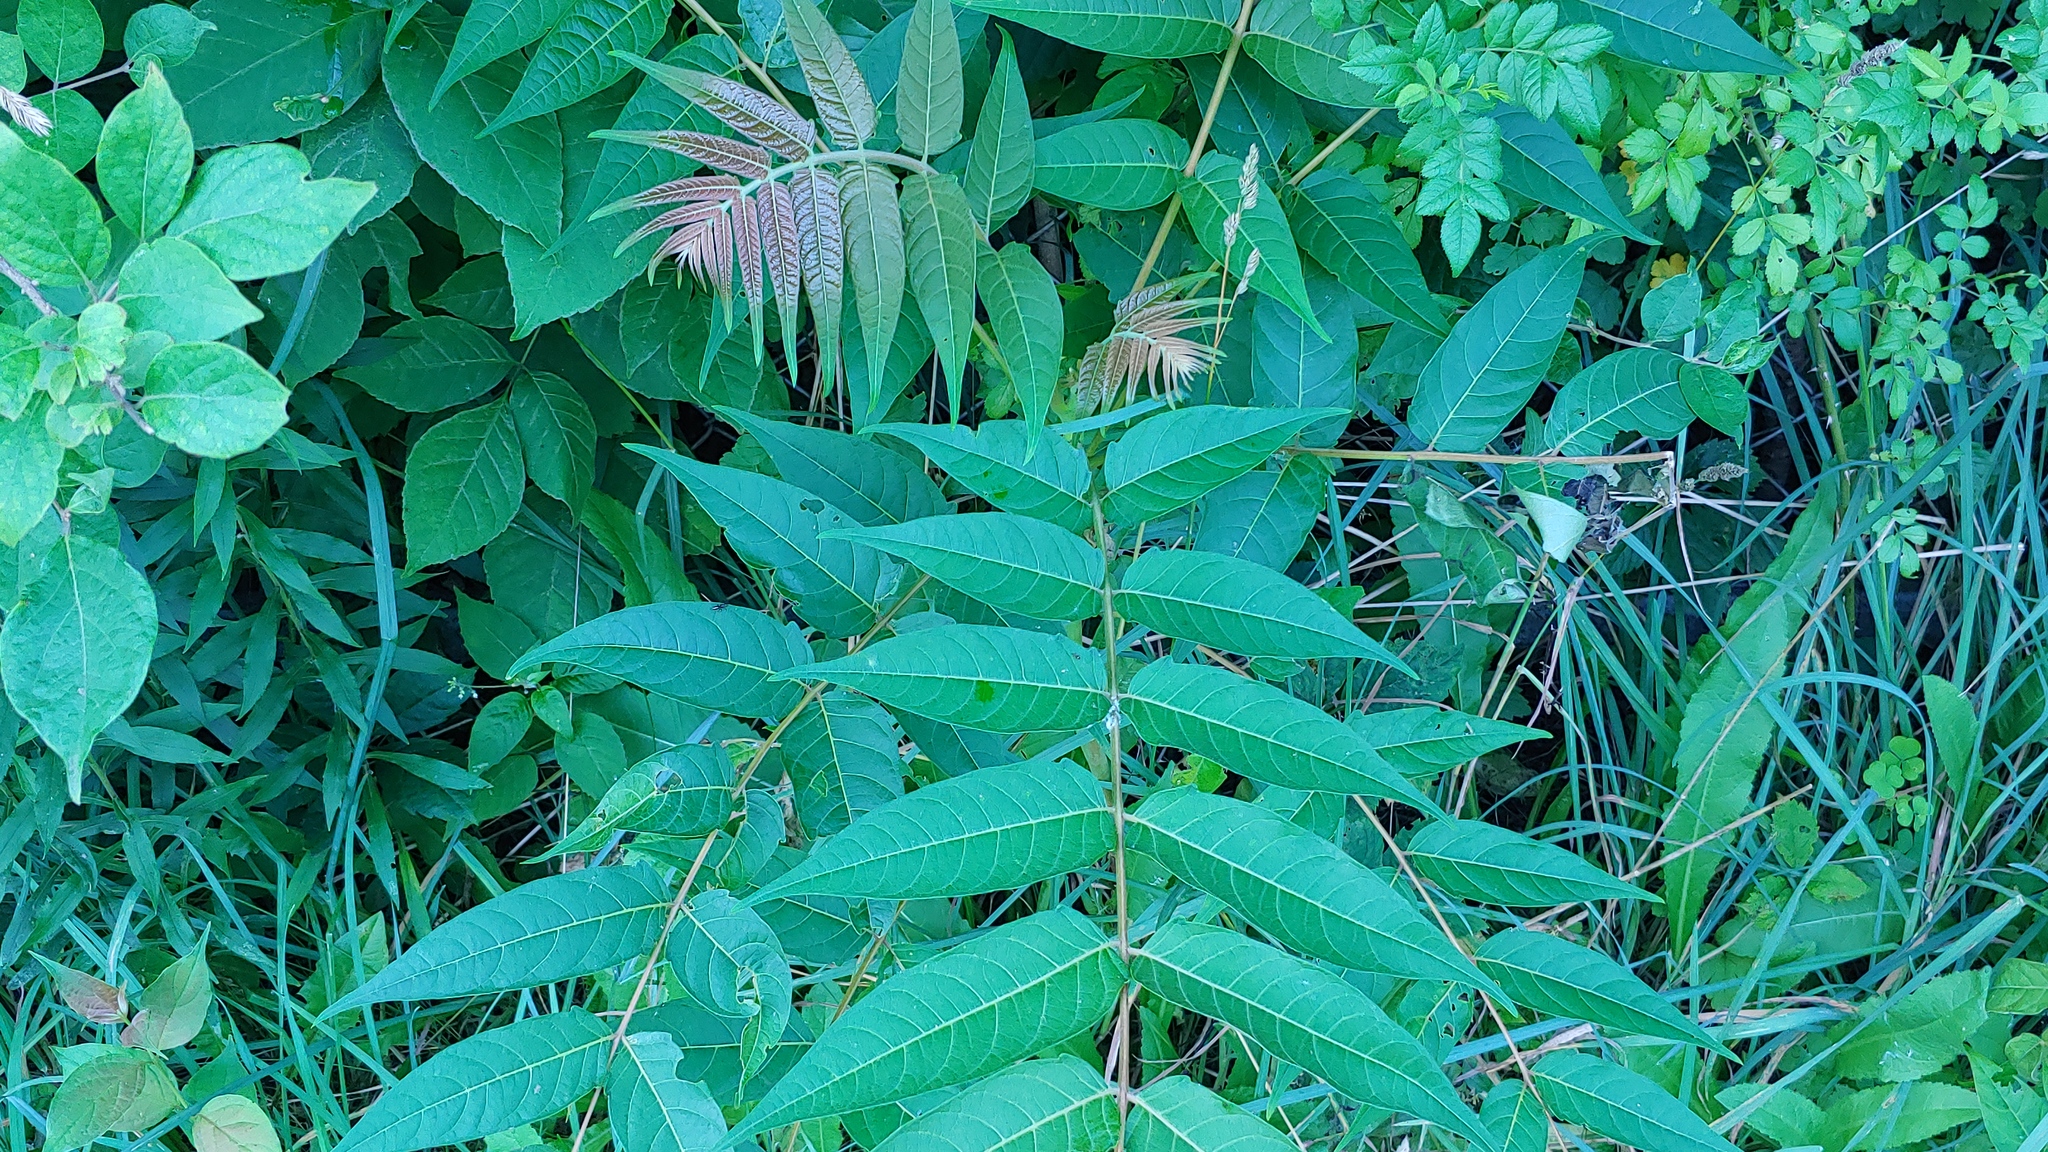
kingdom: Plantae
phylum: Tracheophyta
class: Magnoliopsida
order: Sapindales
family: Simaroubaceae
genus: Ailanthus
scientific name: Ailanthus altissima
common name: Tree-of-heaven
